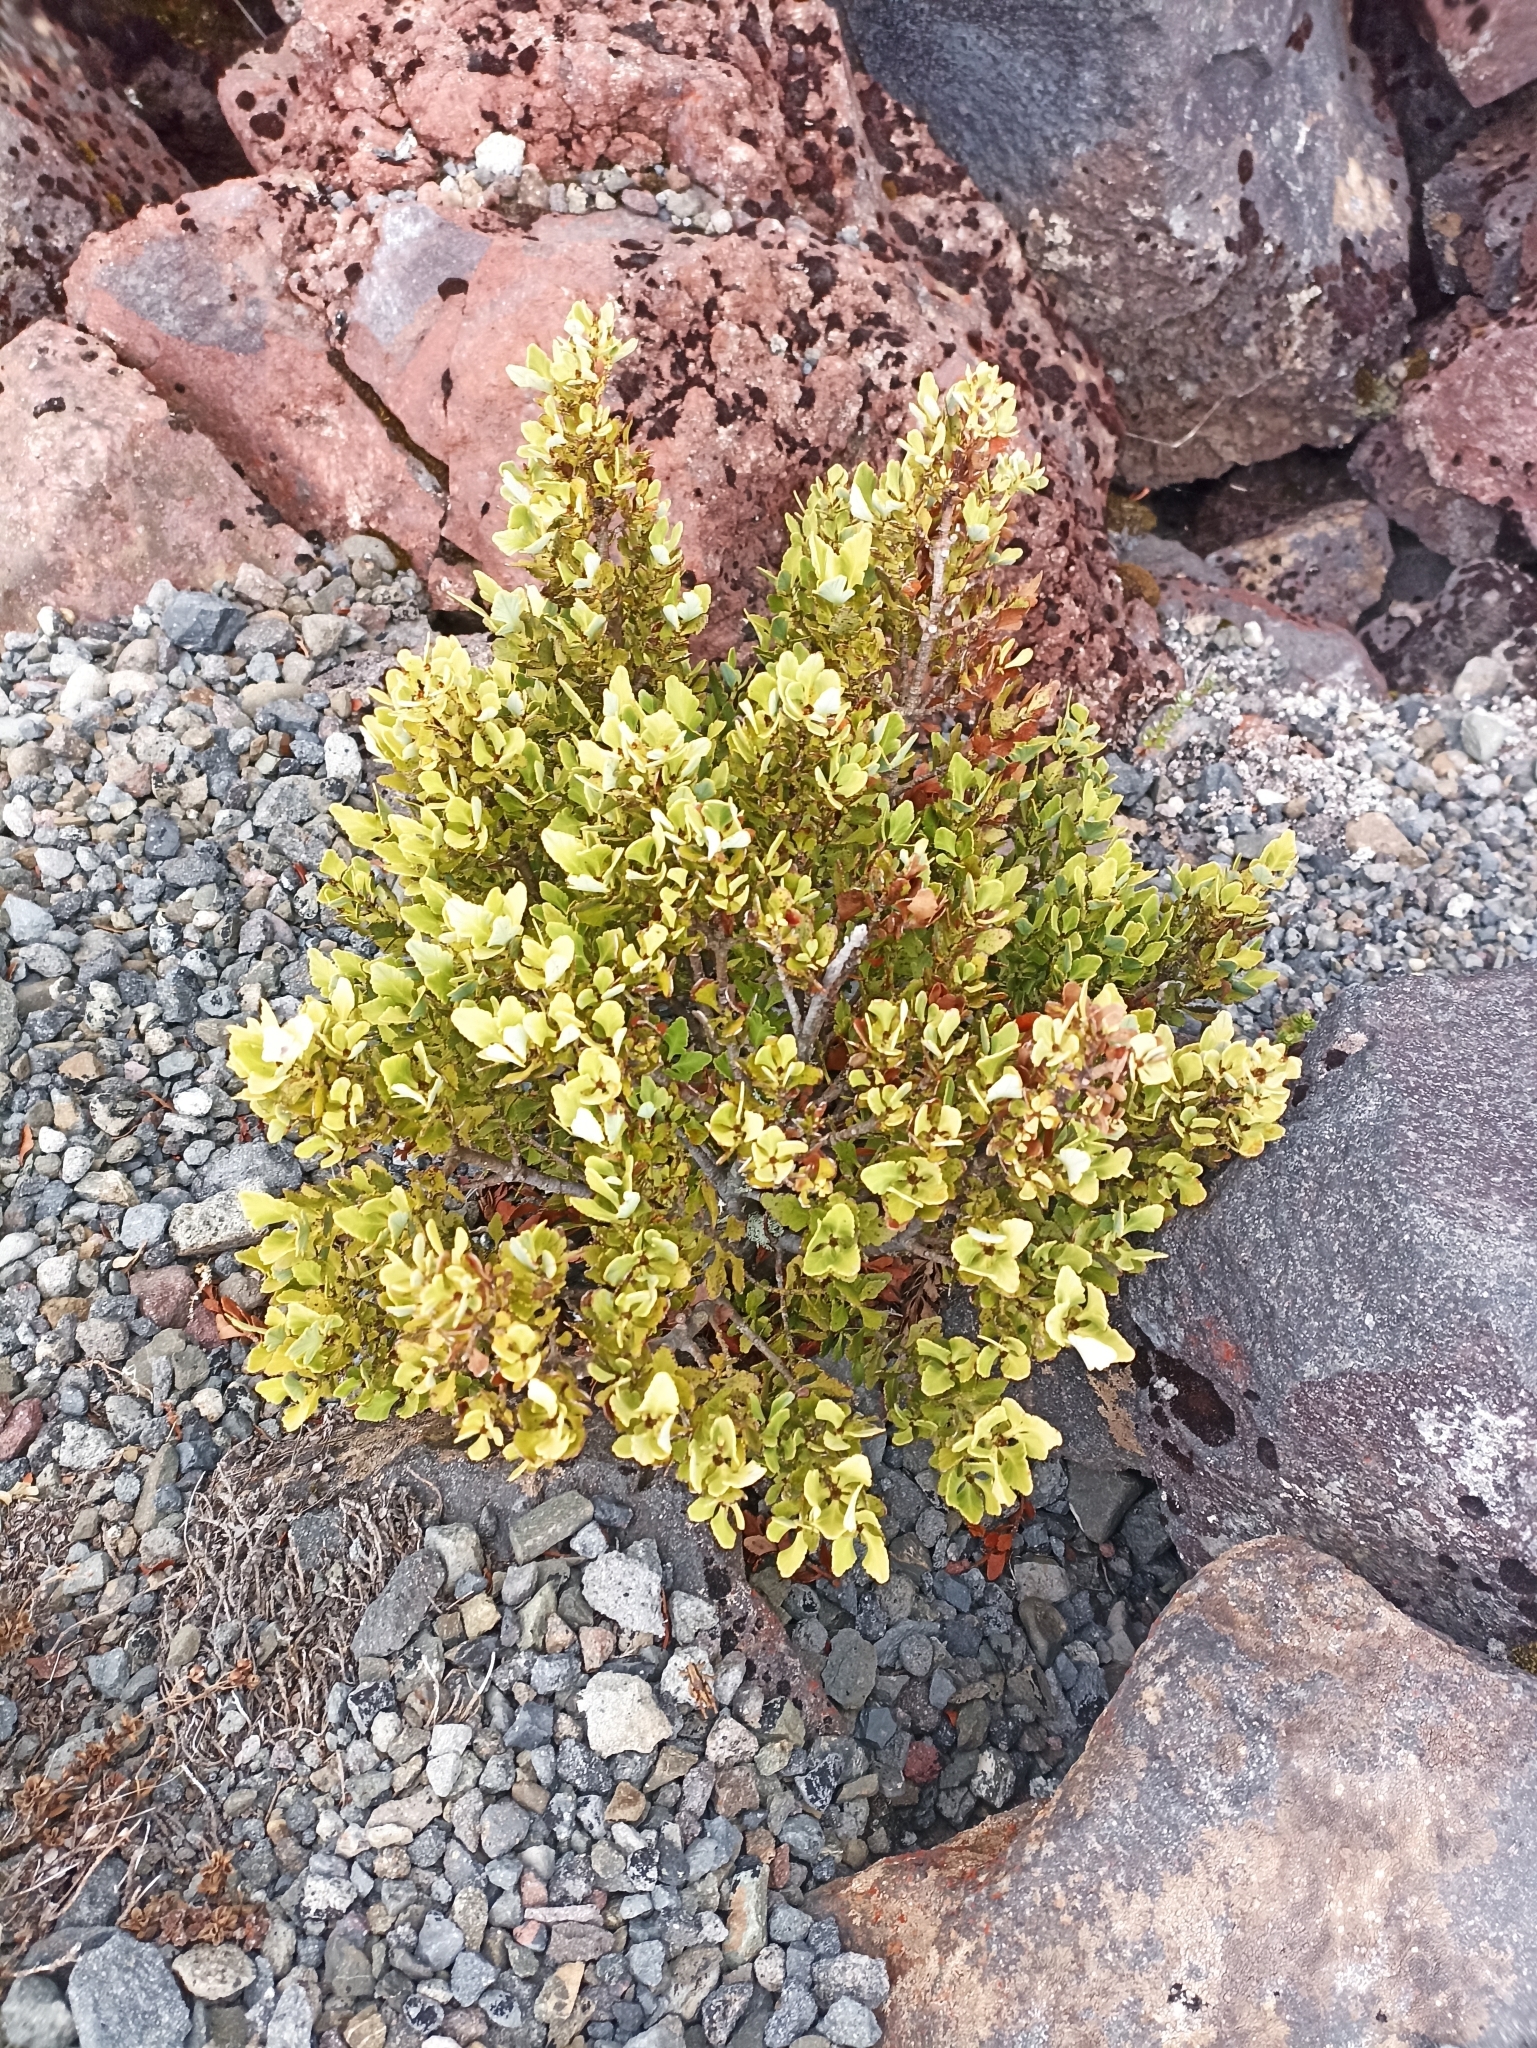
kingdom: Plantae
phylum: Tracheophyta
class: Pinopsida
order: Pinales
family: Phyllocladaceae
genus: Phyllocladus
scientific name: Phyllocladus trichomanoides
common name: Celery pine
